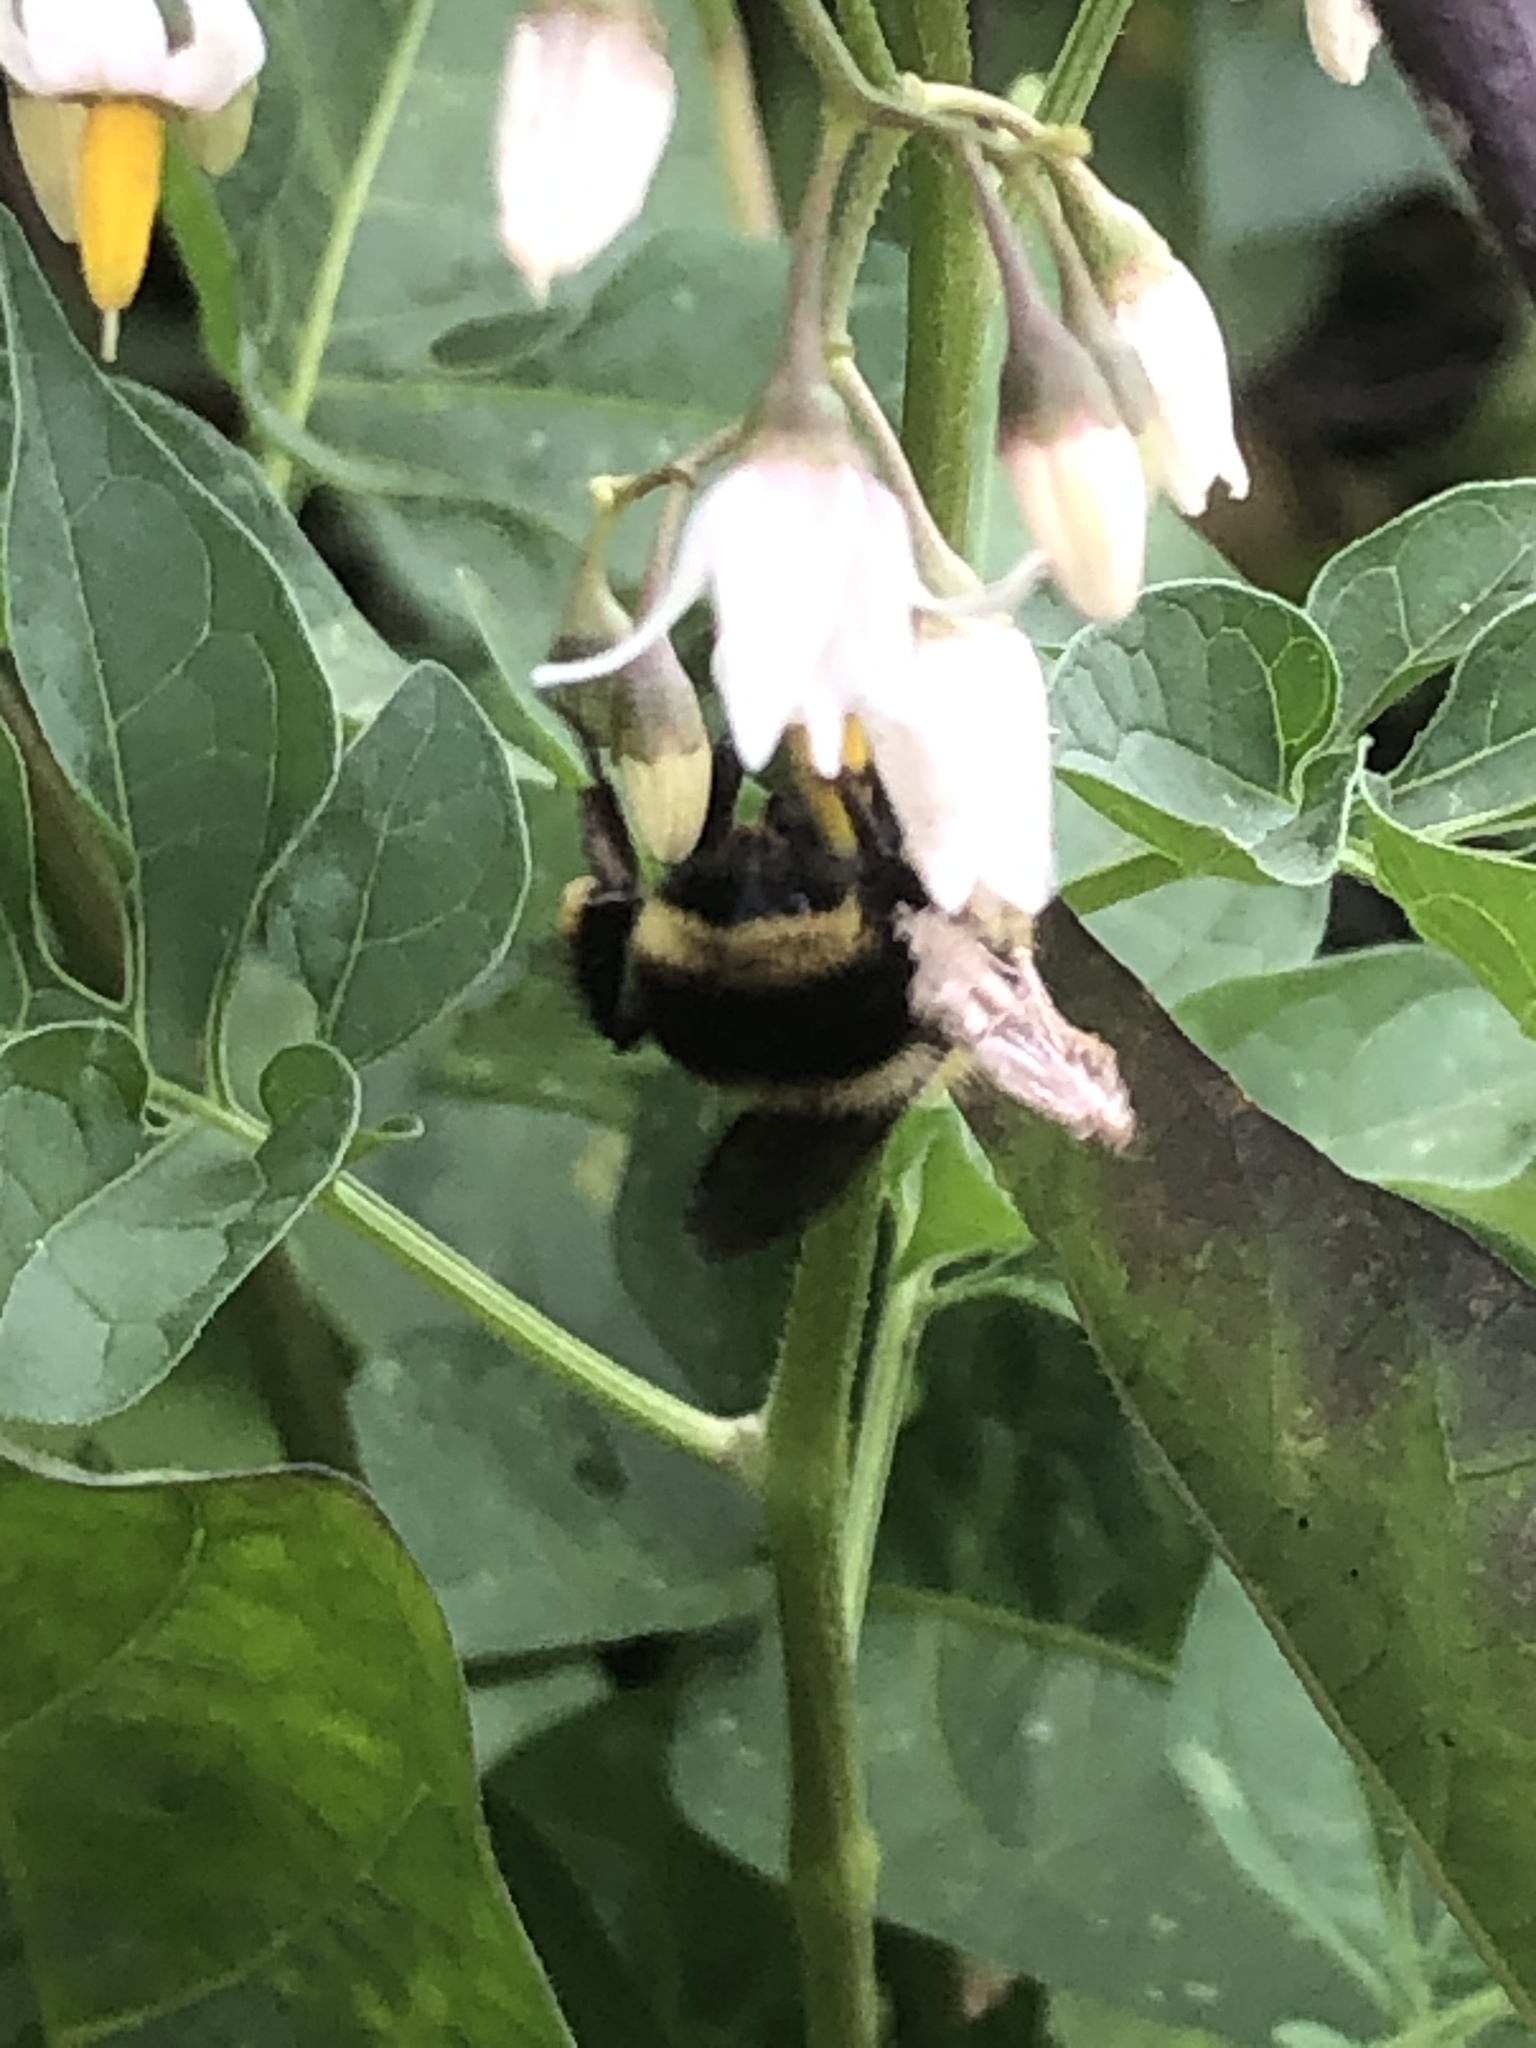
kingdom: Animalia
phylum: Arthropoda
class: Insecta
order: Hymenoptera
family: Apidae
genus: Bombus
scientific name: Bombus californicus
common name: California bumble bee
